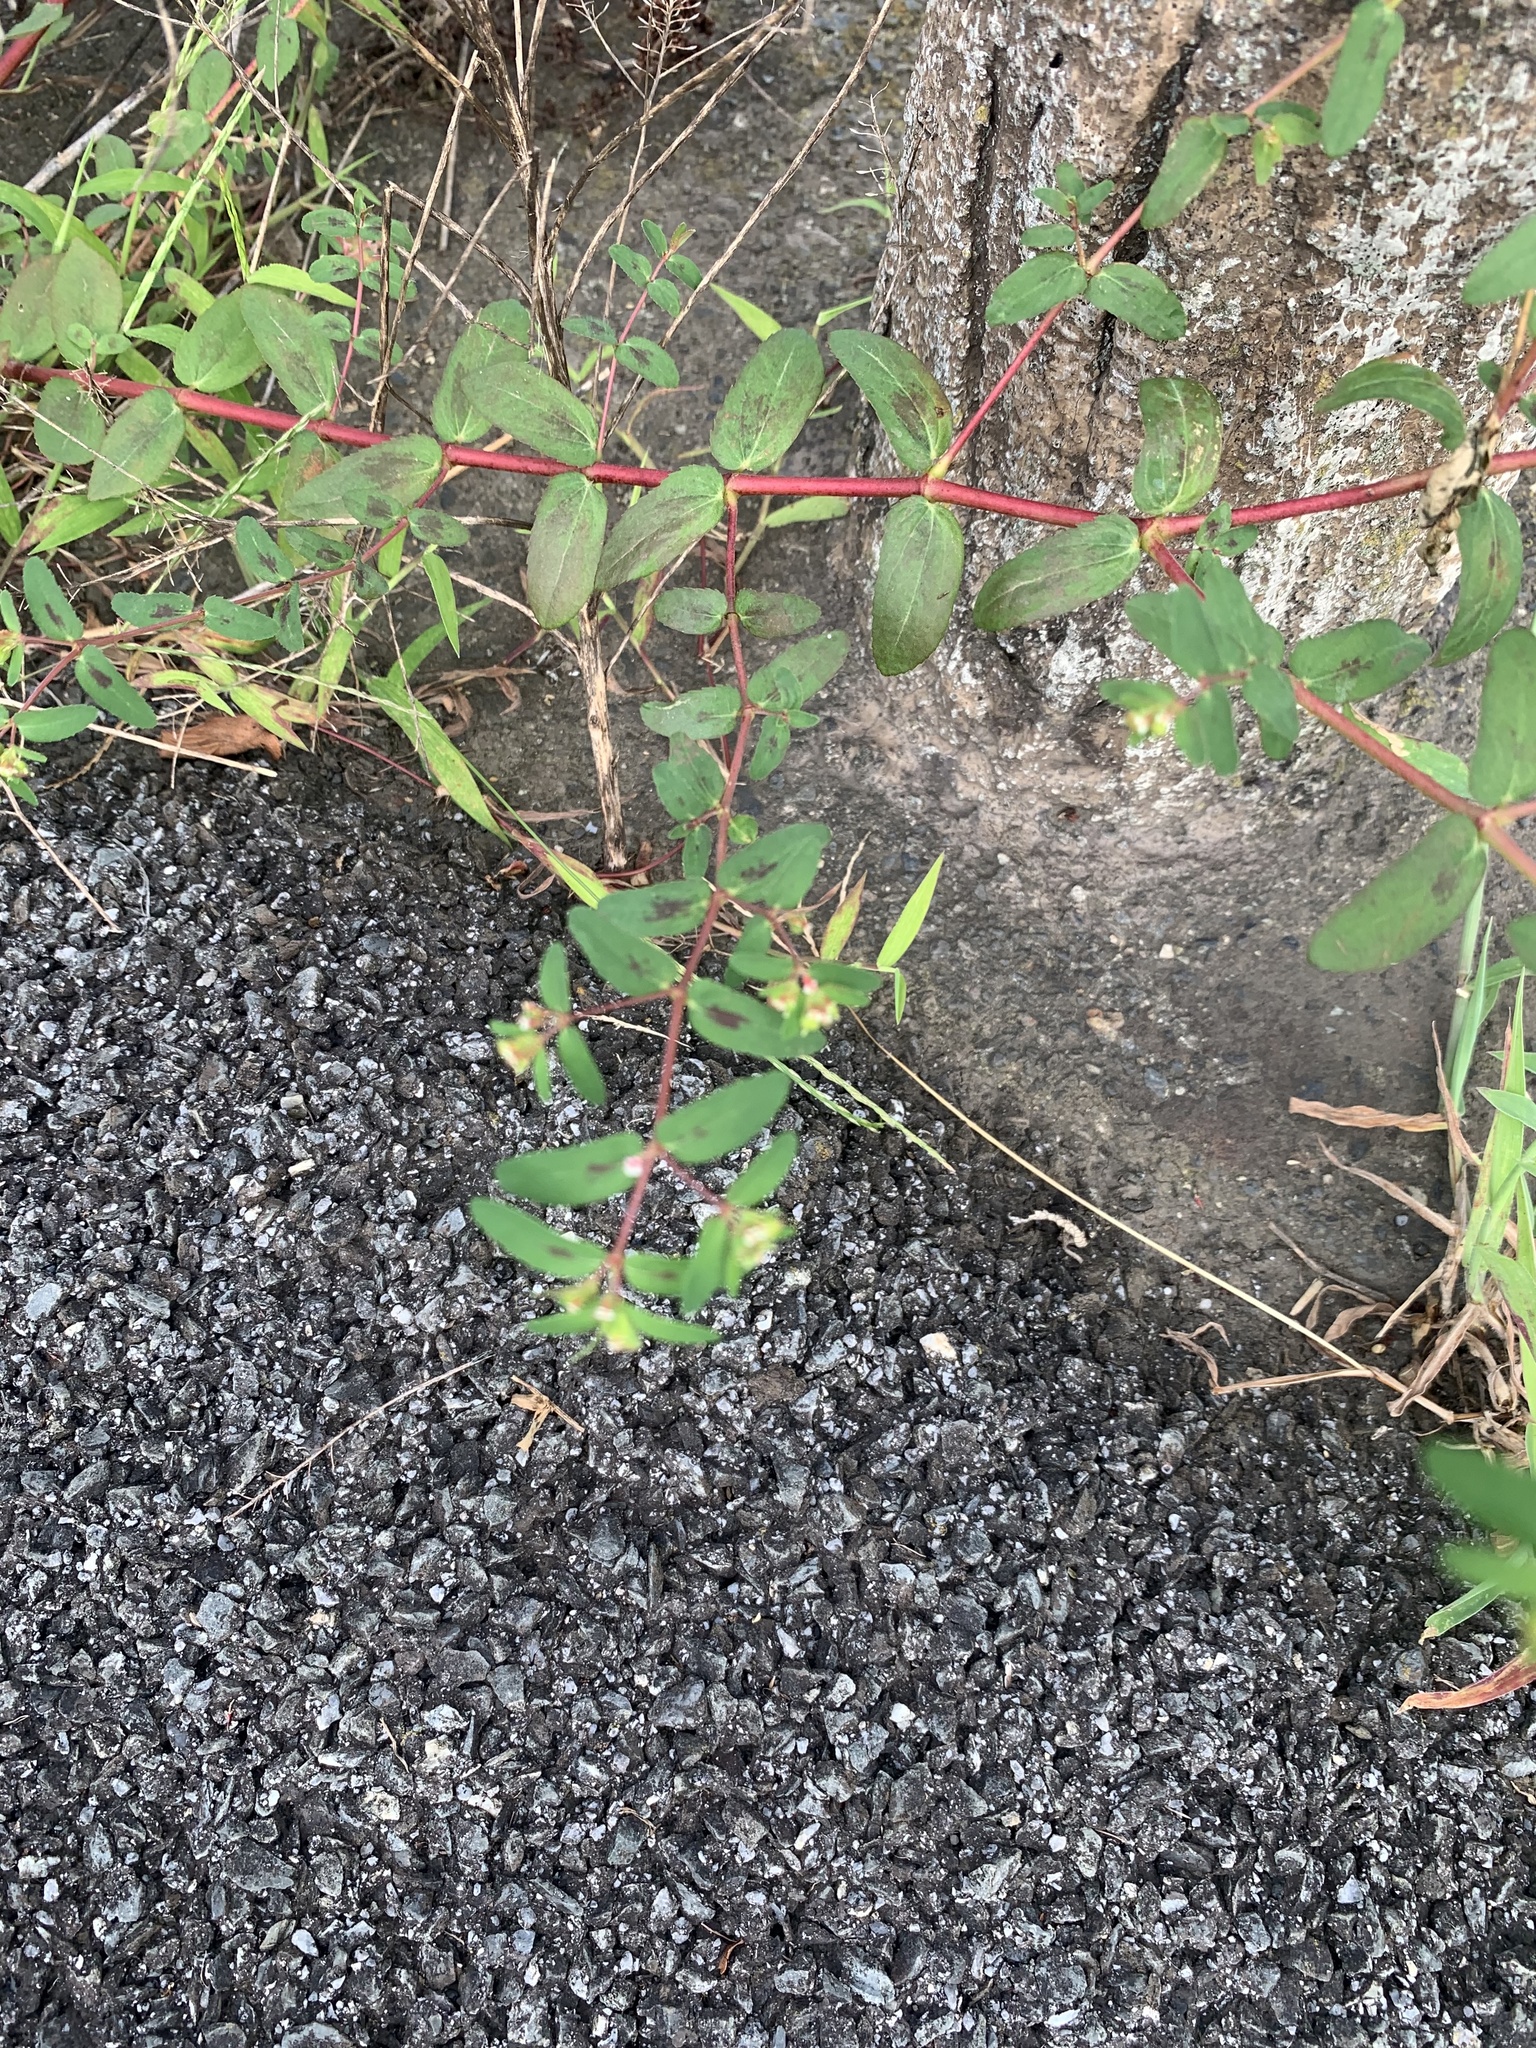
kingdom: Plantae
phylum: Tracheophyta
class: Magnoliopsida
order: Malpighiales
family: Euphorbiaceae
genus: Euphorbia
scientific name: Euphorbia nutans
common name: Eyebane
